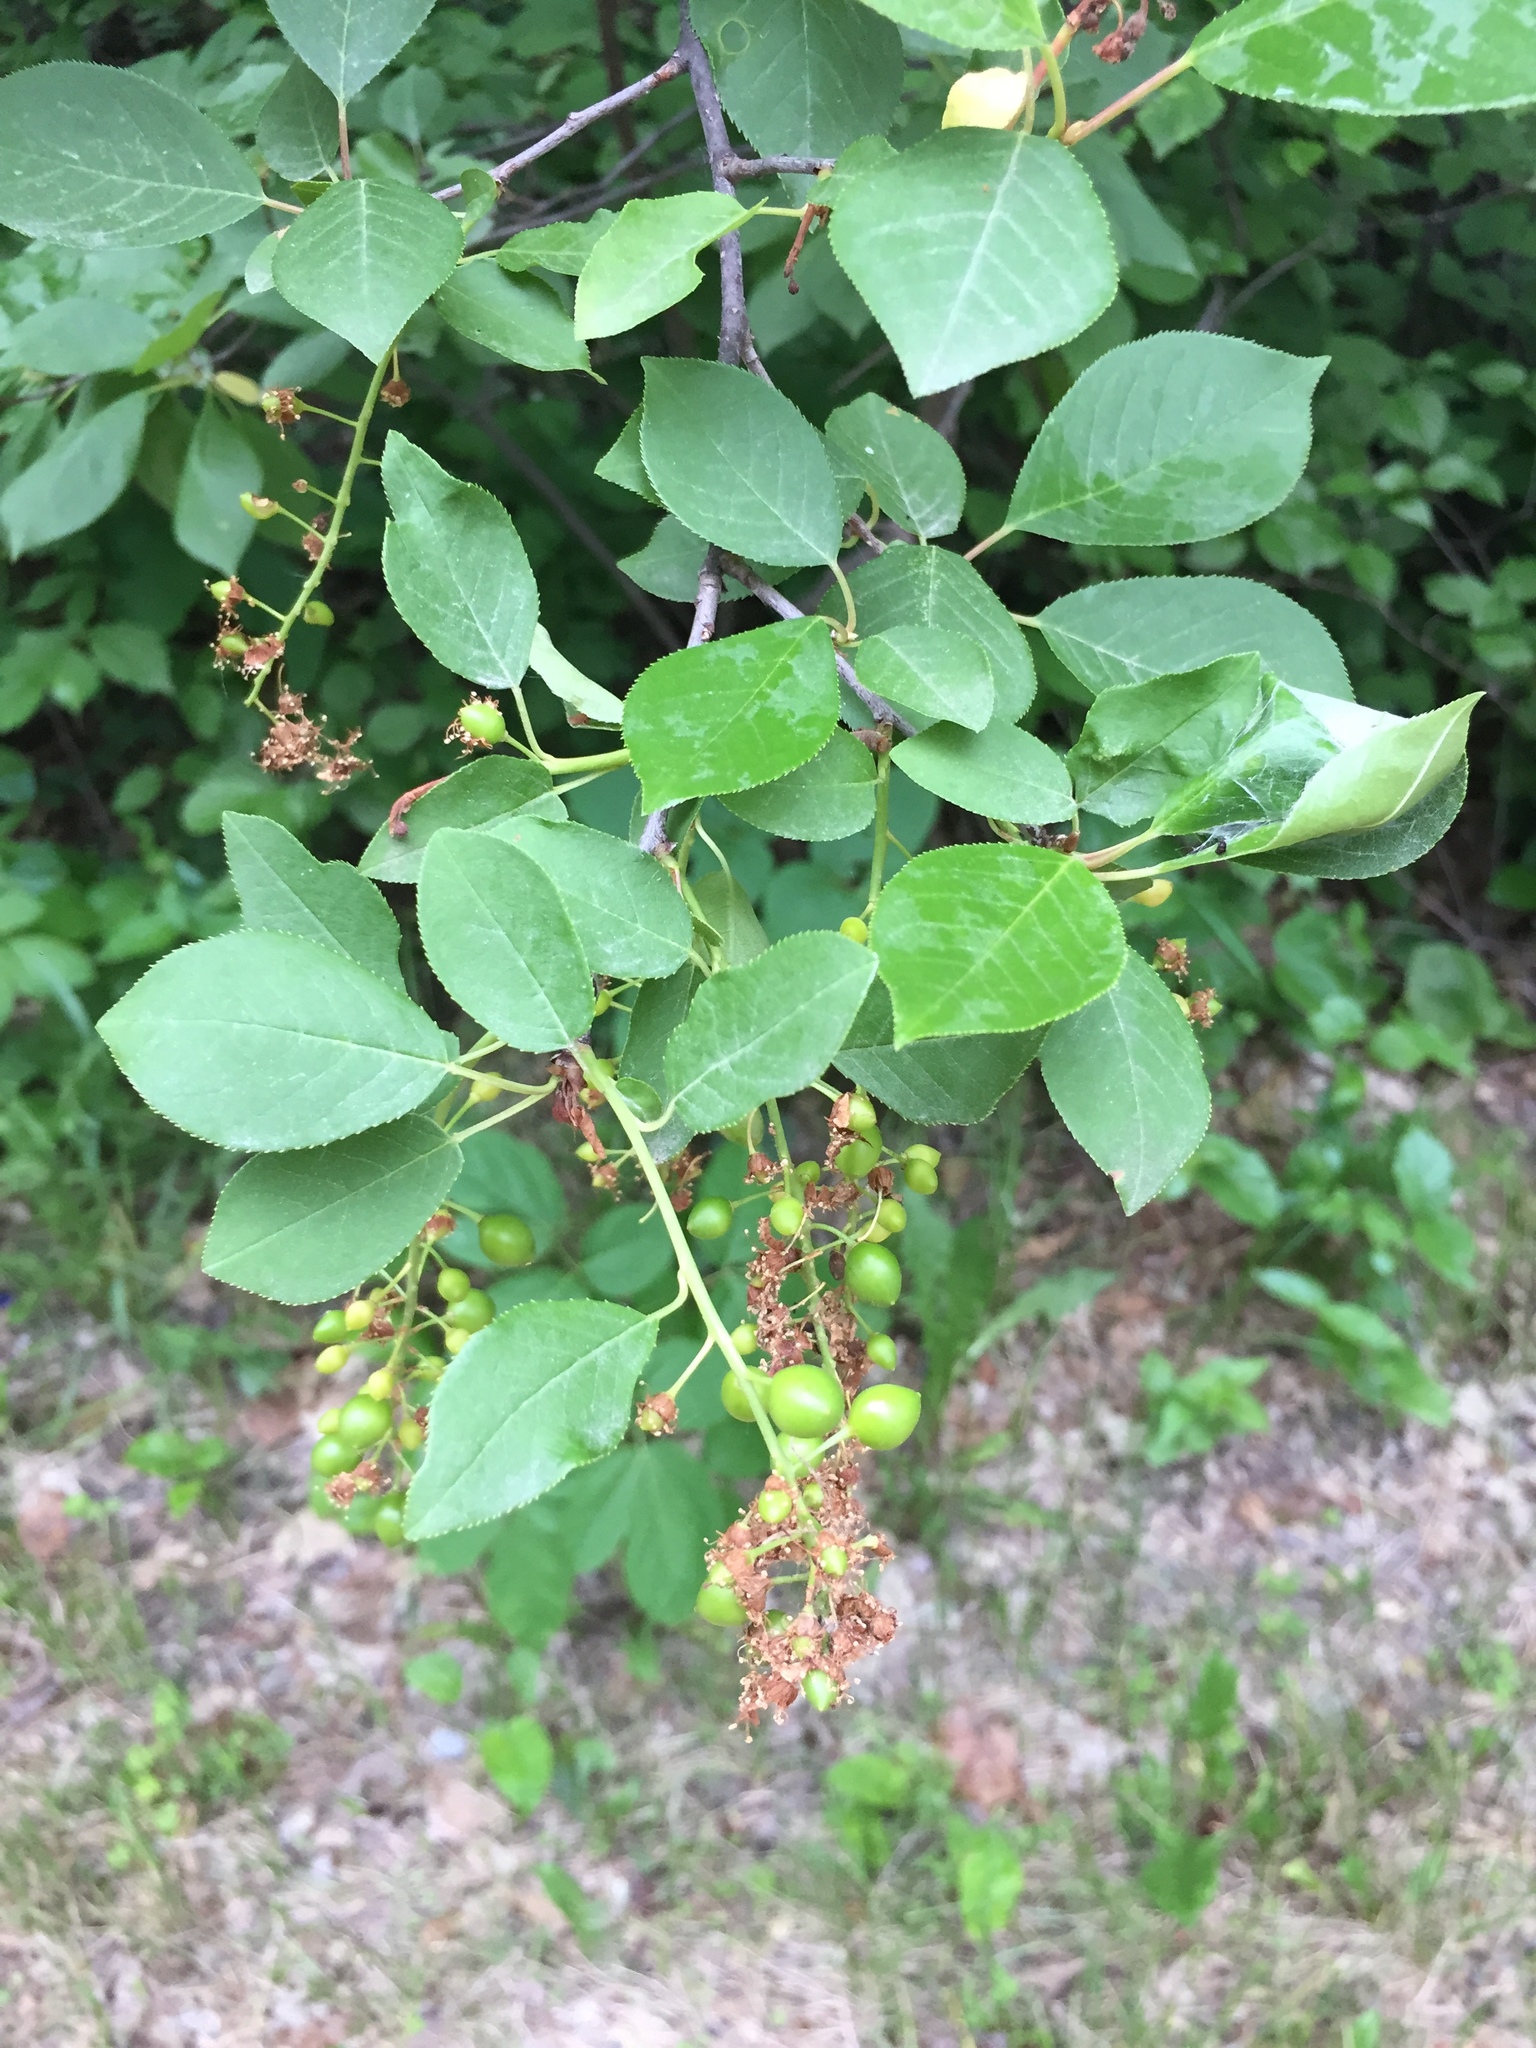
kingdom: Plantae
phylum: Tracheophyta
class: Magnoliopsida
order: Rosales
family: Rosaceae
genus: Prunus
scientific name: Prunus virginiana
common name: Chokecherry
